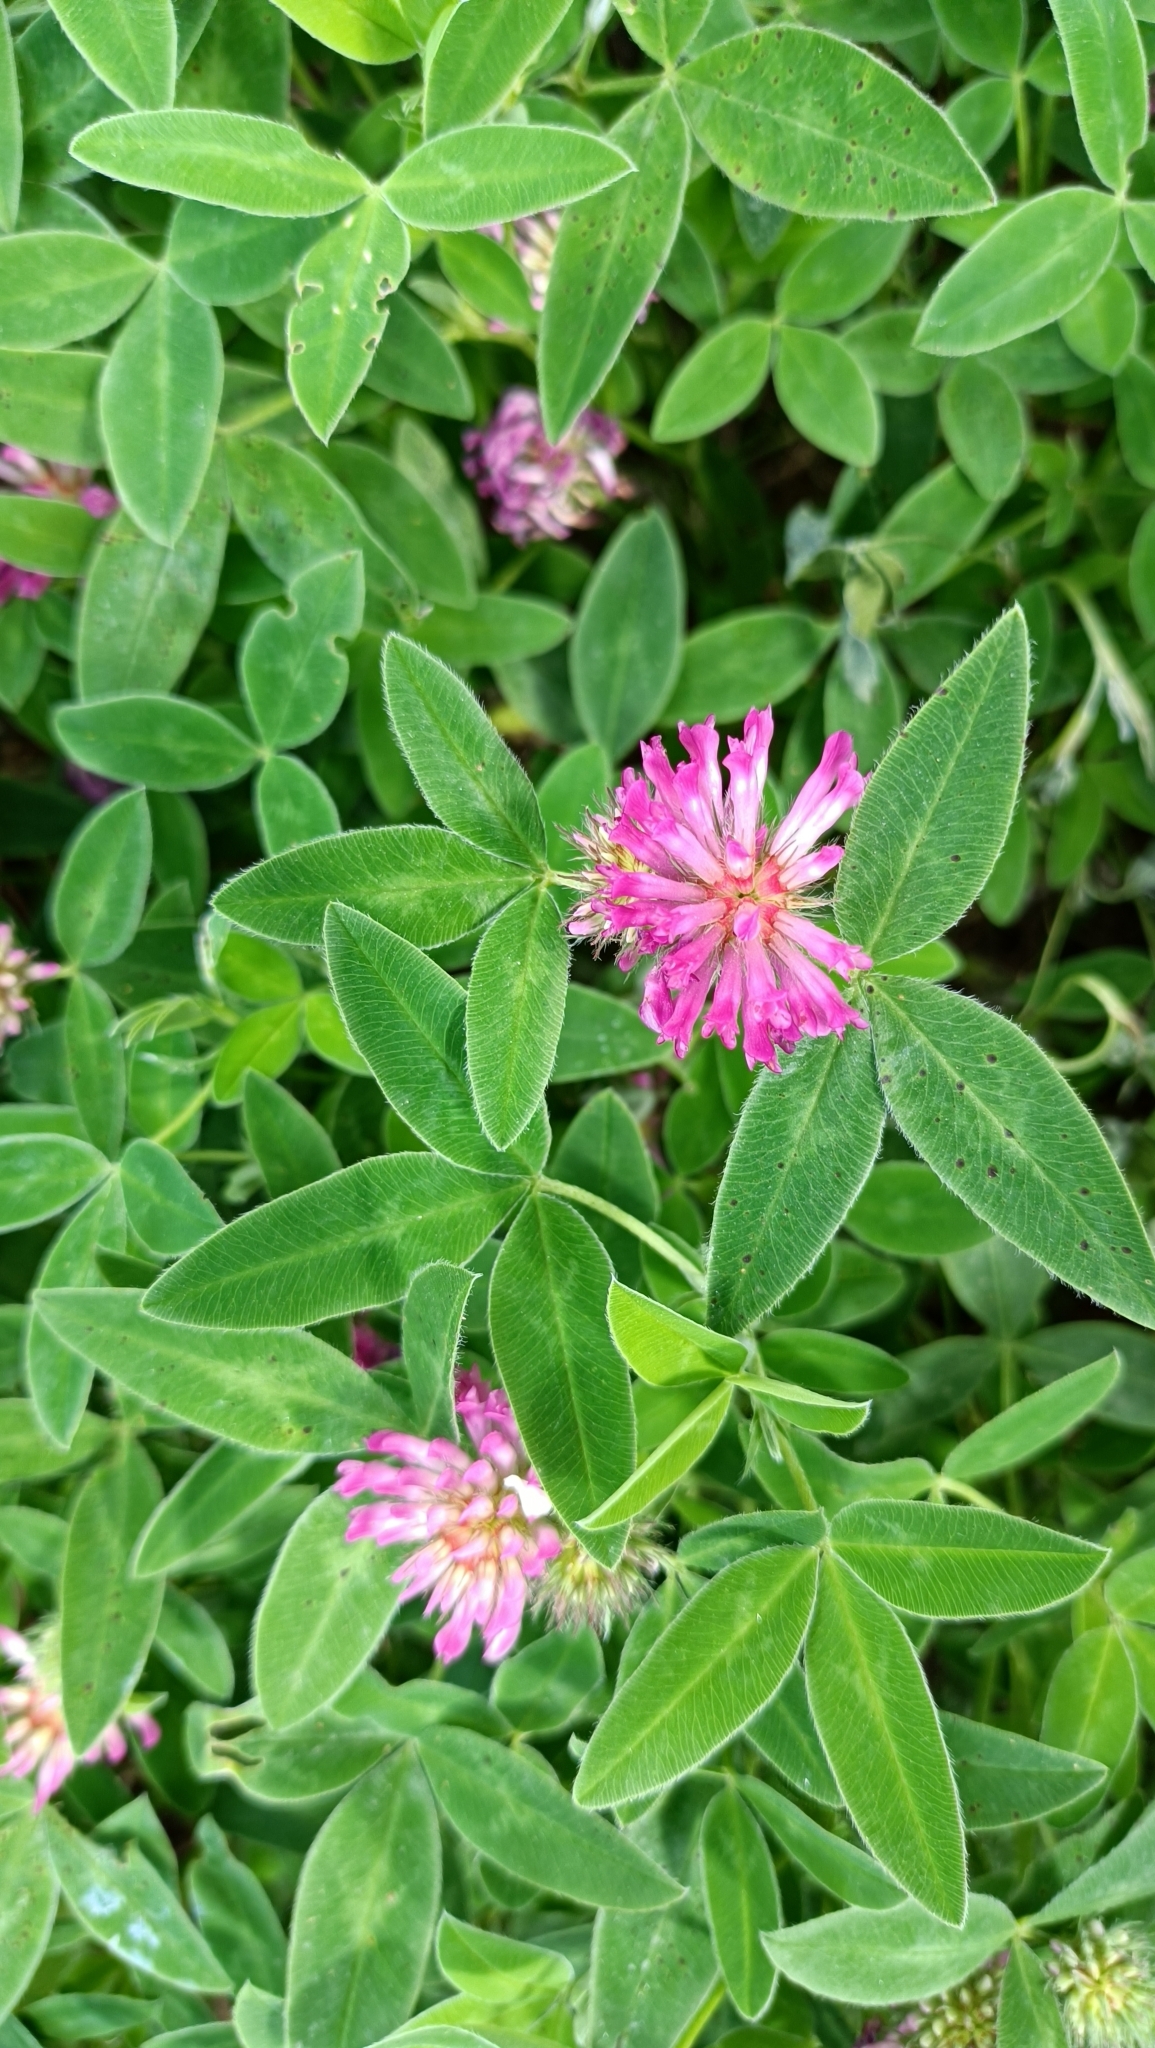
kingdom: Plantae
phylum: Tracheophyta
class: Magnoliopsida
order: Fabales
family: Fabaceae
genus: Trifolium
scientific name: Trifolium medium
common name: Zigzag clover
